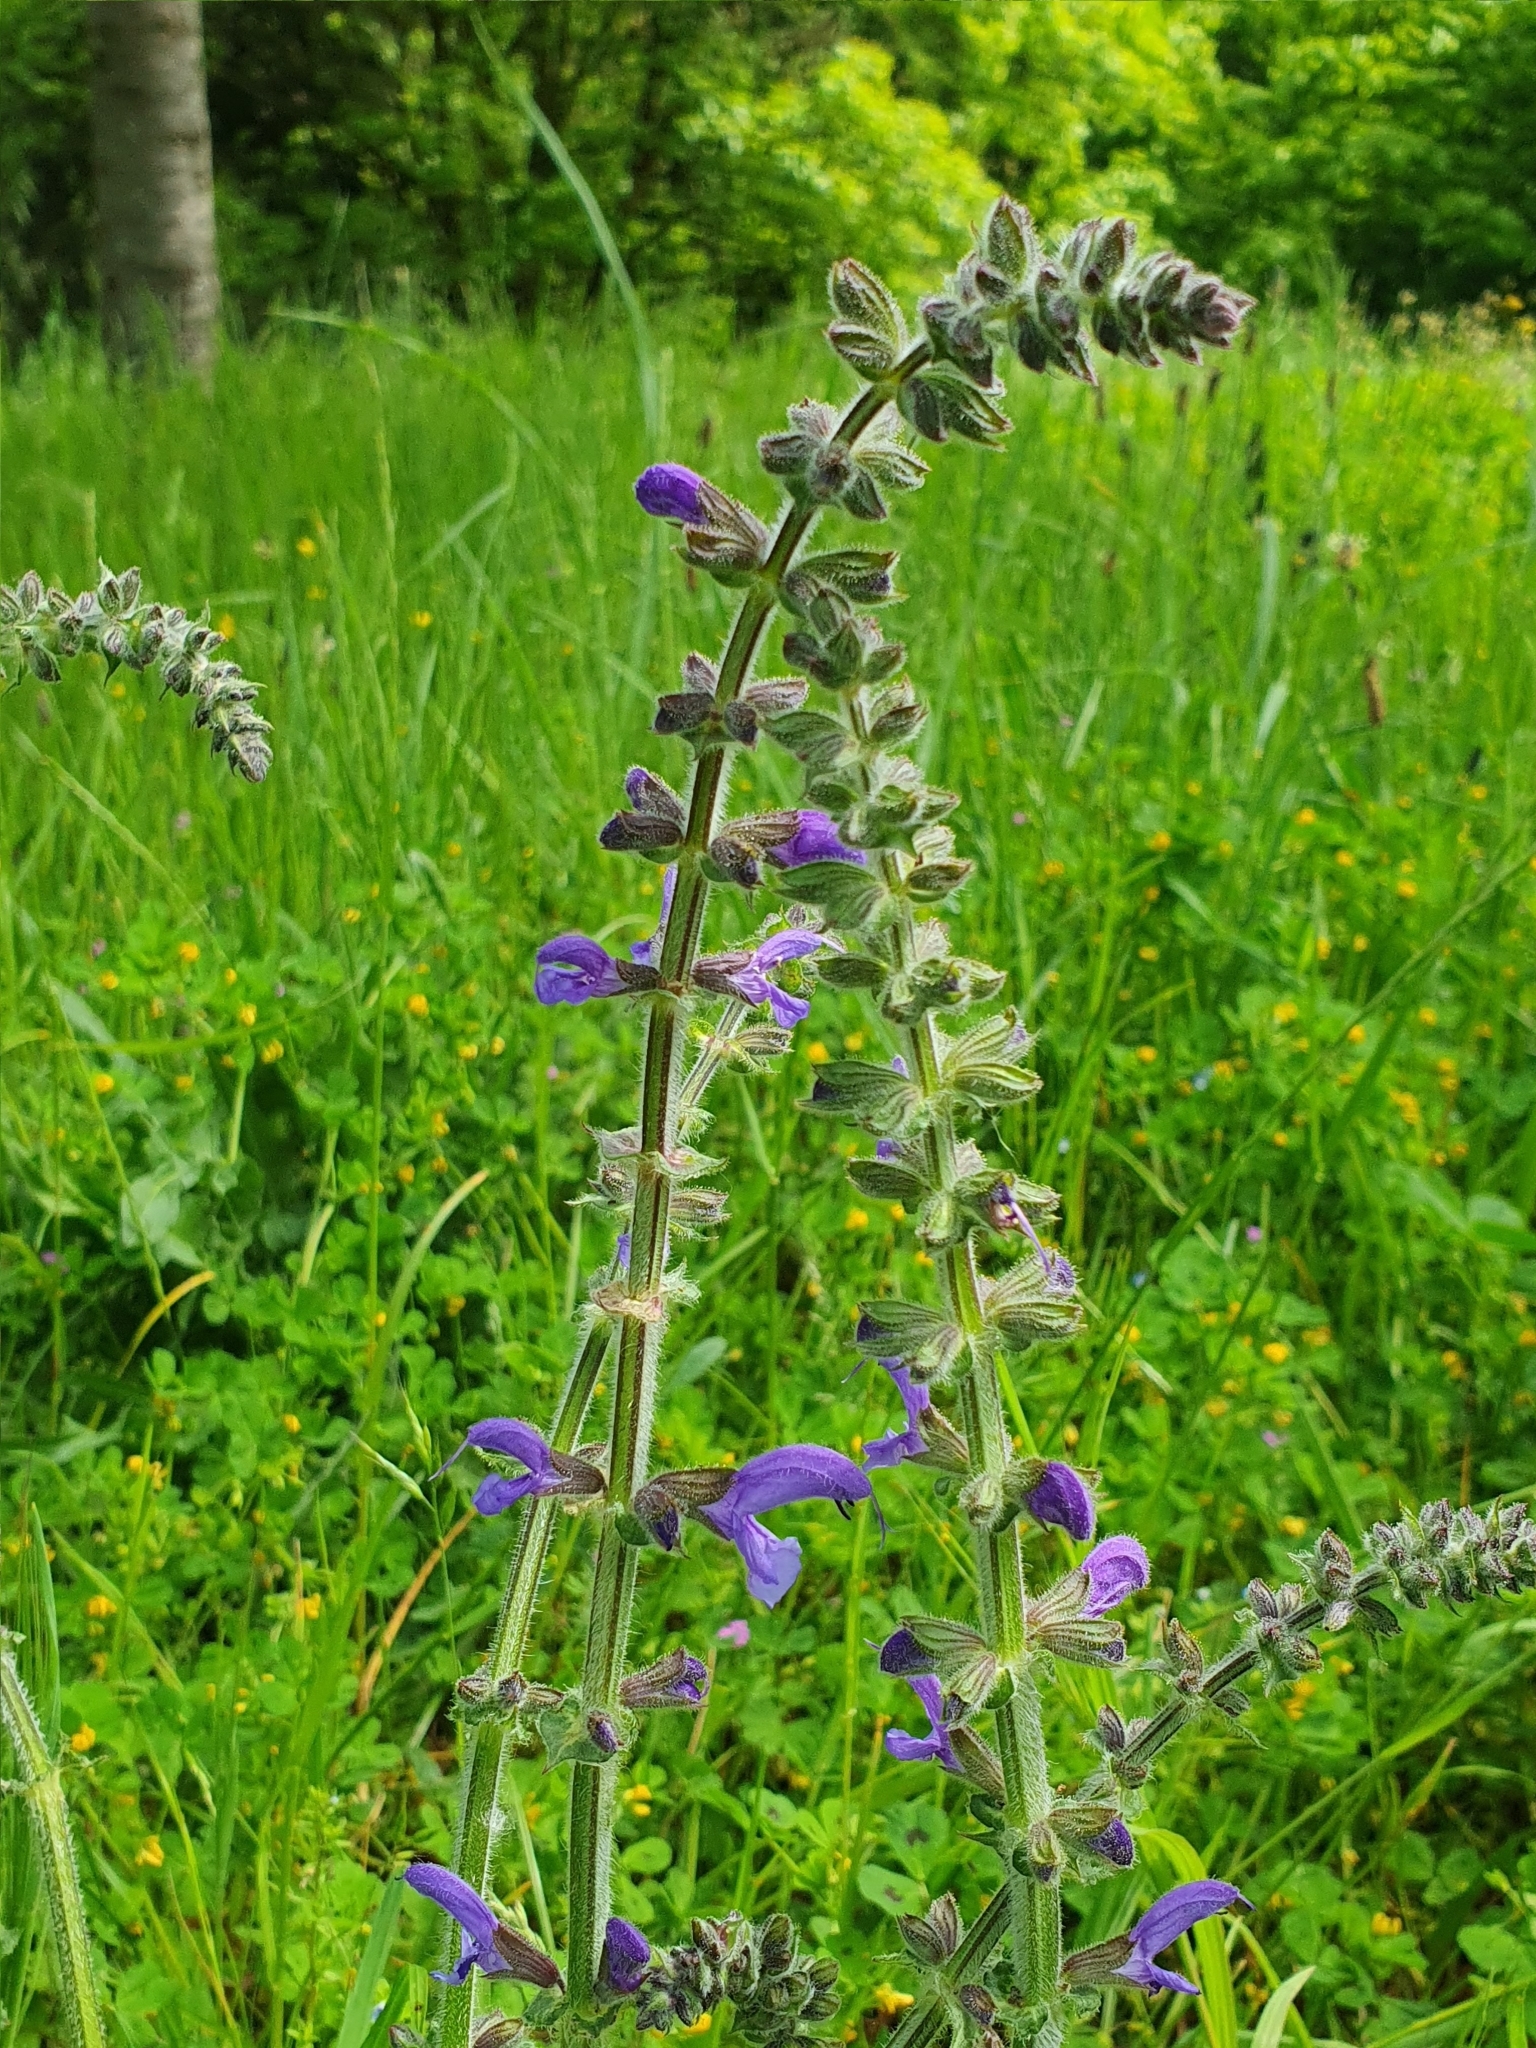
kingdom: Plantae
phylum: Tracheophyta
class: Magnoliopsida
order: Lamiales
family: Lamiaceae
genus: Salvia
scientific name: Salvia pratensis
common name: Meadow sage
